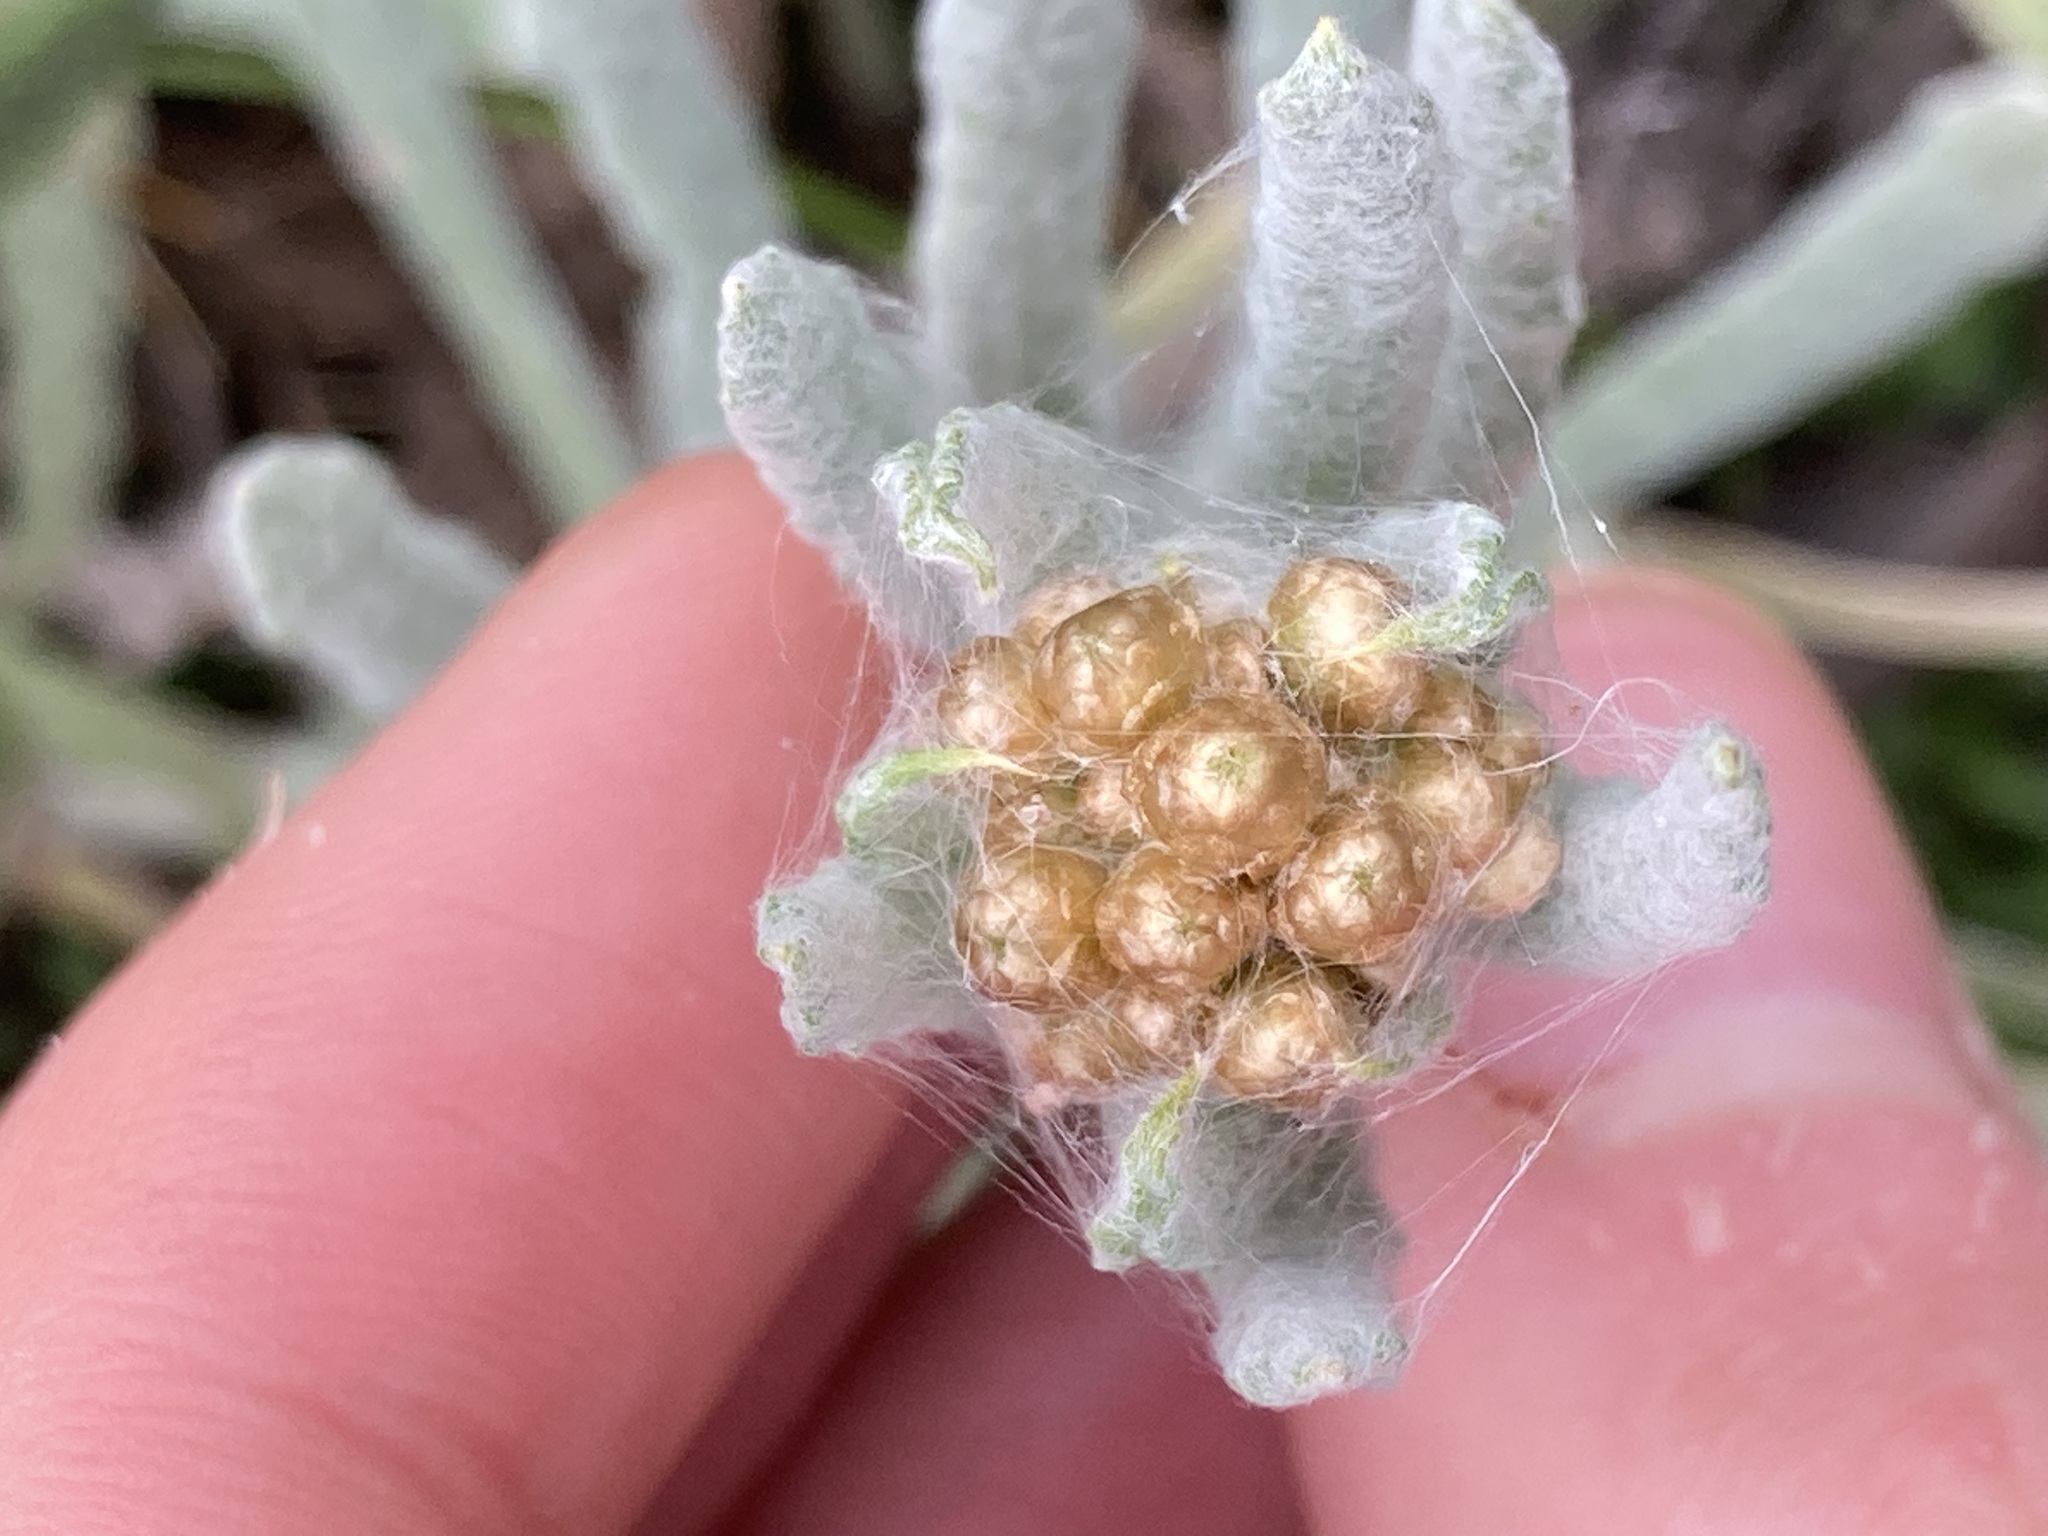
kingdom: Plantae
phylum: Tracheophyta
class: Magnoliopsida
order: Asterales
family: Asteraceae
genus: Helichrysum
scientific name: Helichrysum luteoalbum
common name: Daisy
